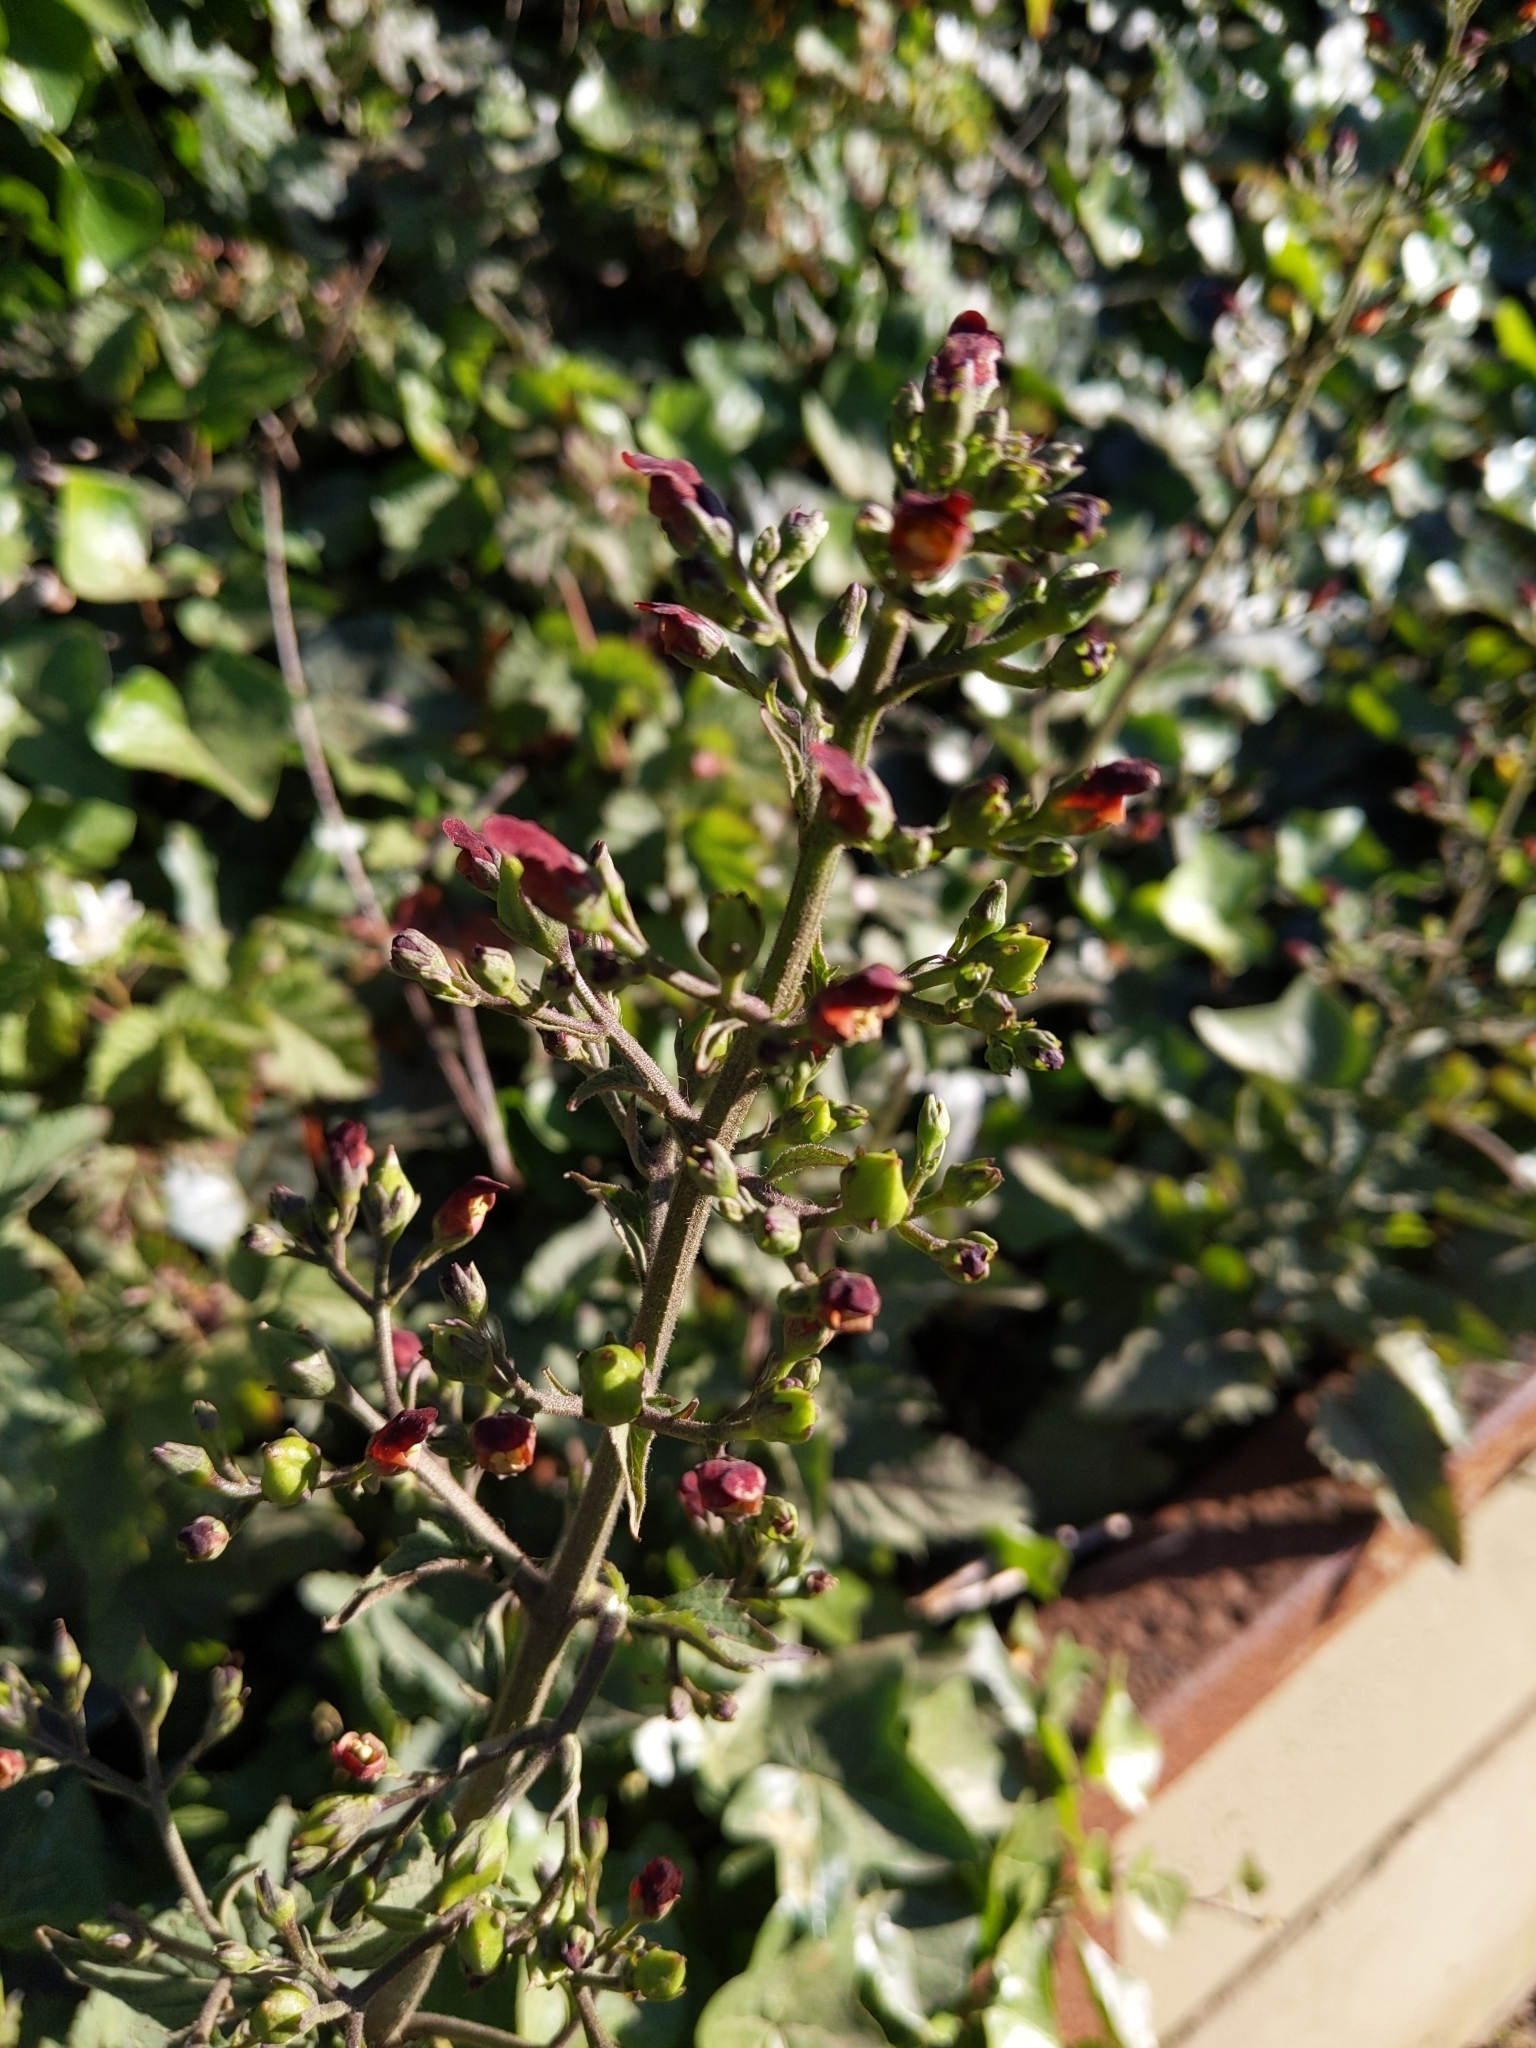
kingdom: Plantae
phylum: Tracheophyta
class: Magnoliopsida
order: Lamiales
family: Scrophulariaceae
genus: Scrophularia
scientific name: Scrophularia californica
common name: California figwort
